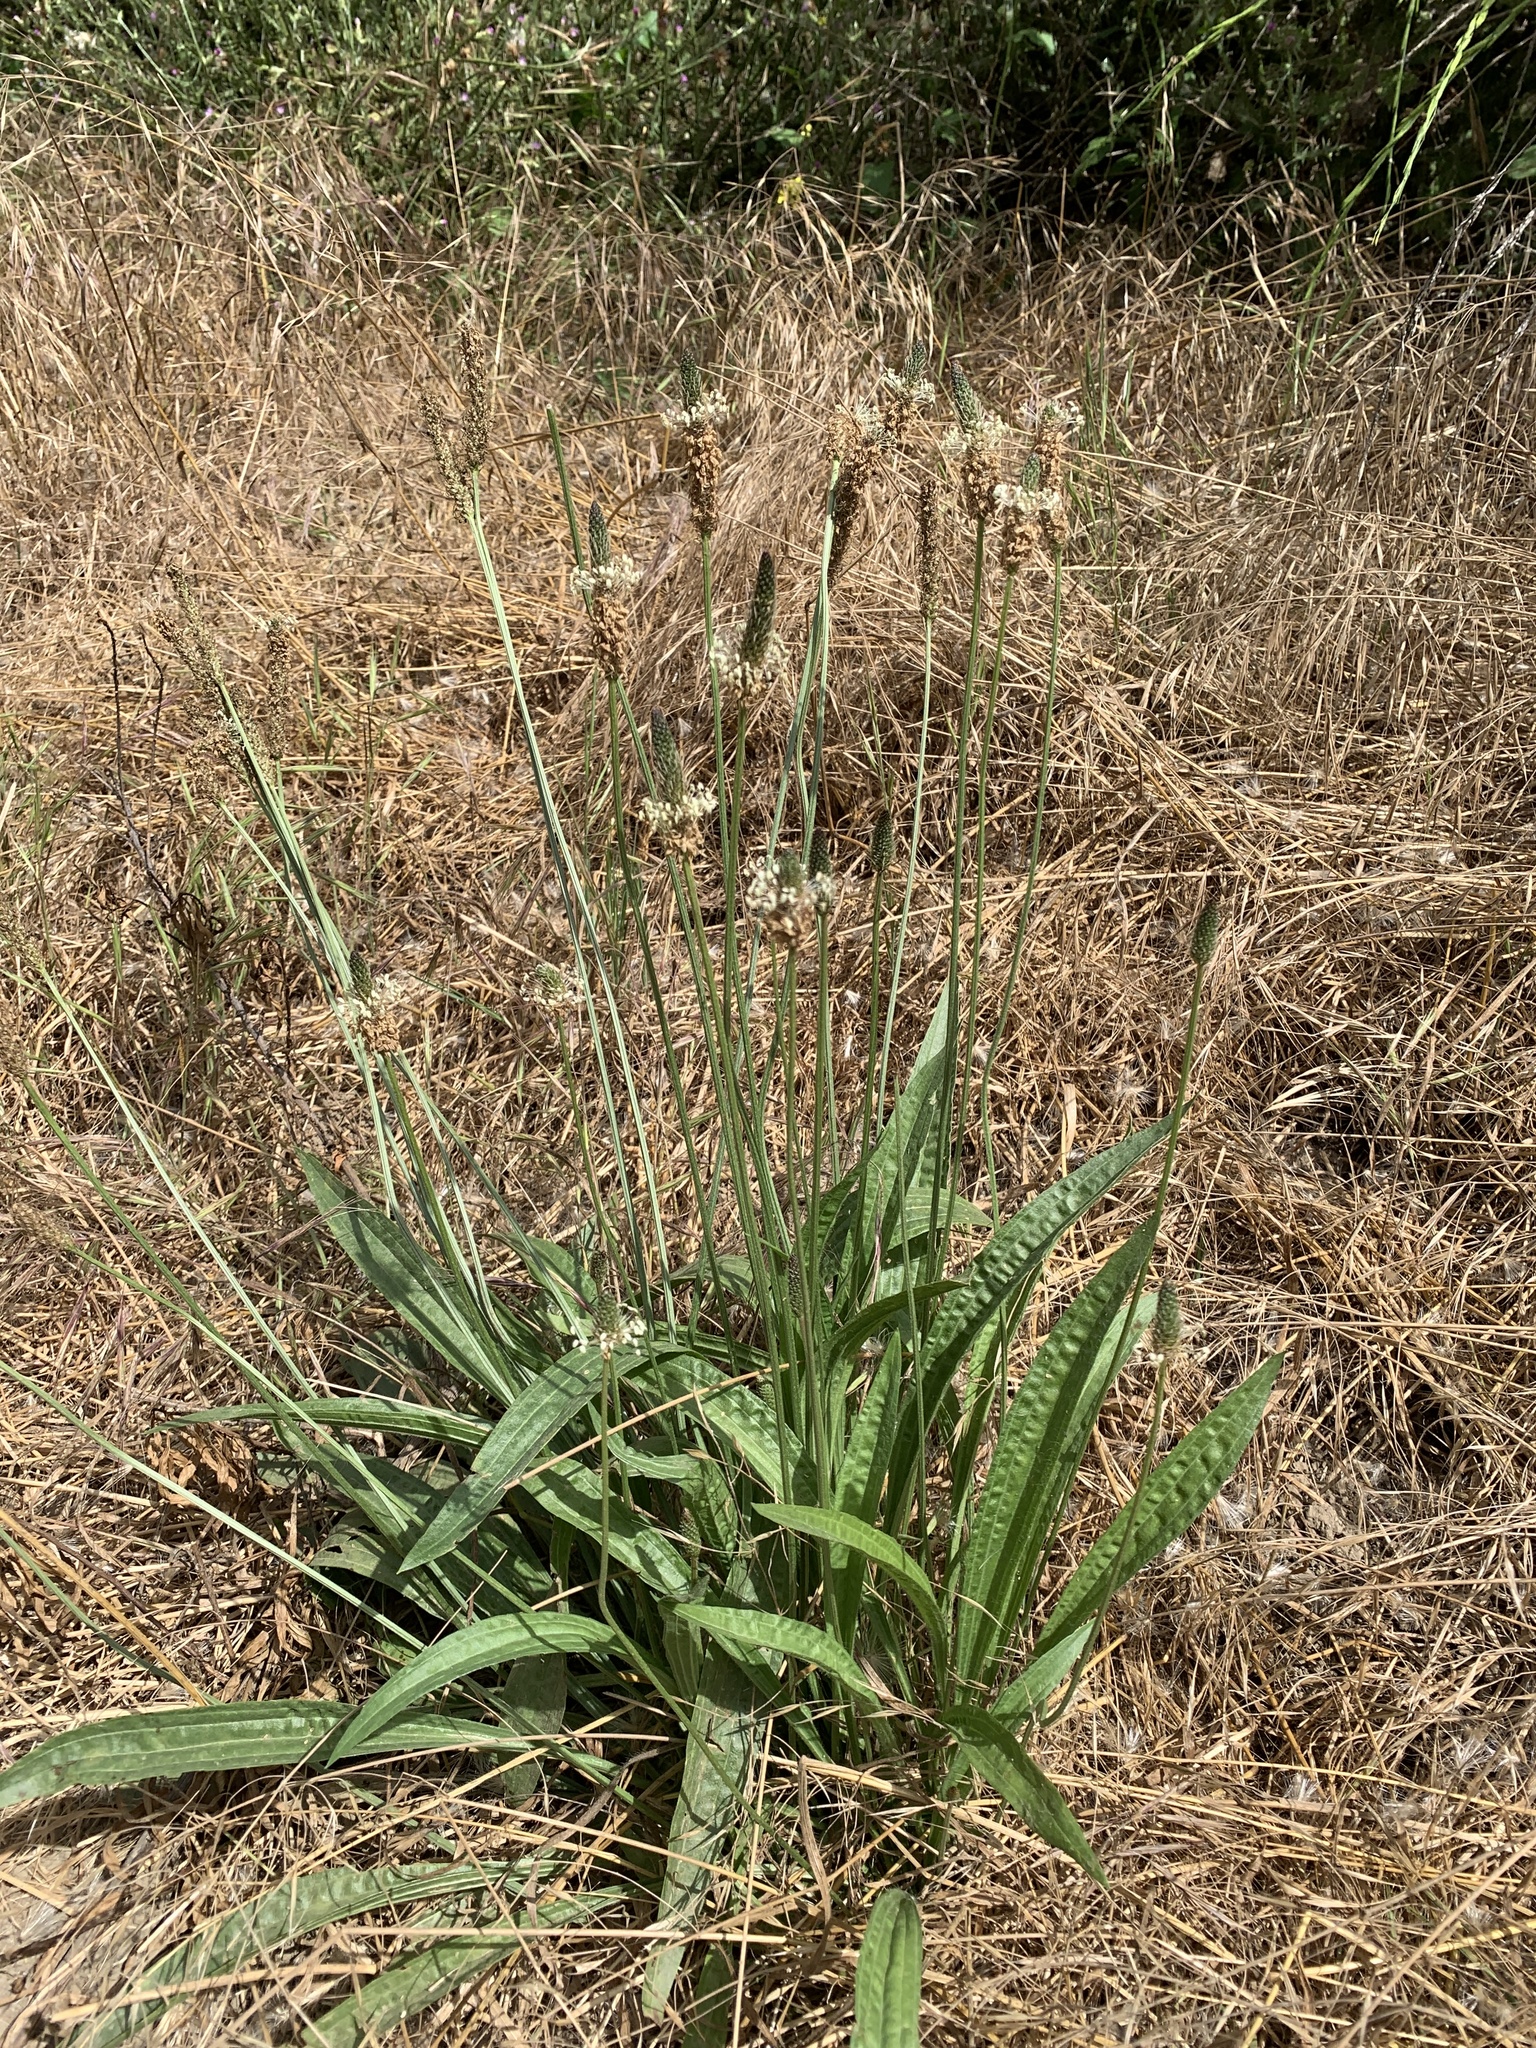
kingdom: Plantae
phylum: Tracheophyta
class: Magnoliopsida
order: Lamiales
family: Plantaginaceae
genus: Plantago
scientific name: Plantago lanceolata
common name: Ribwort plantain
